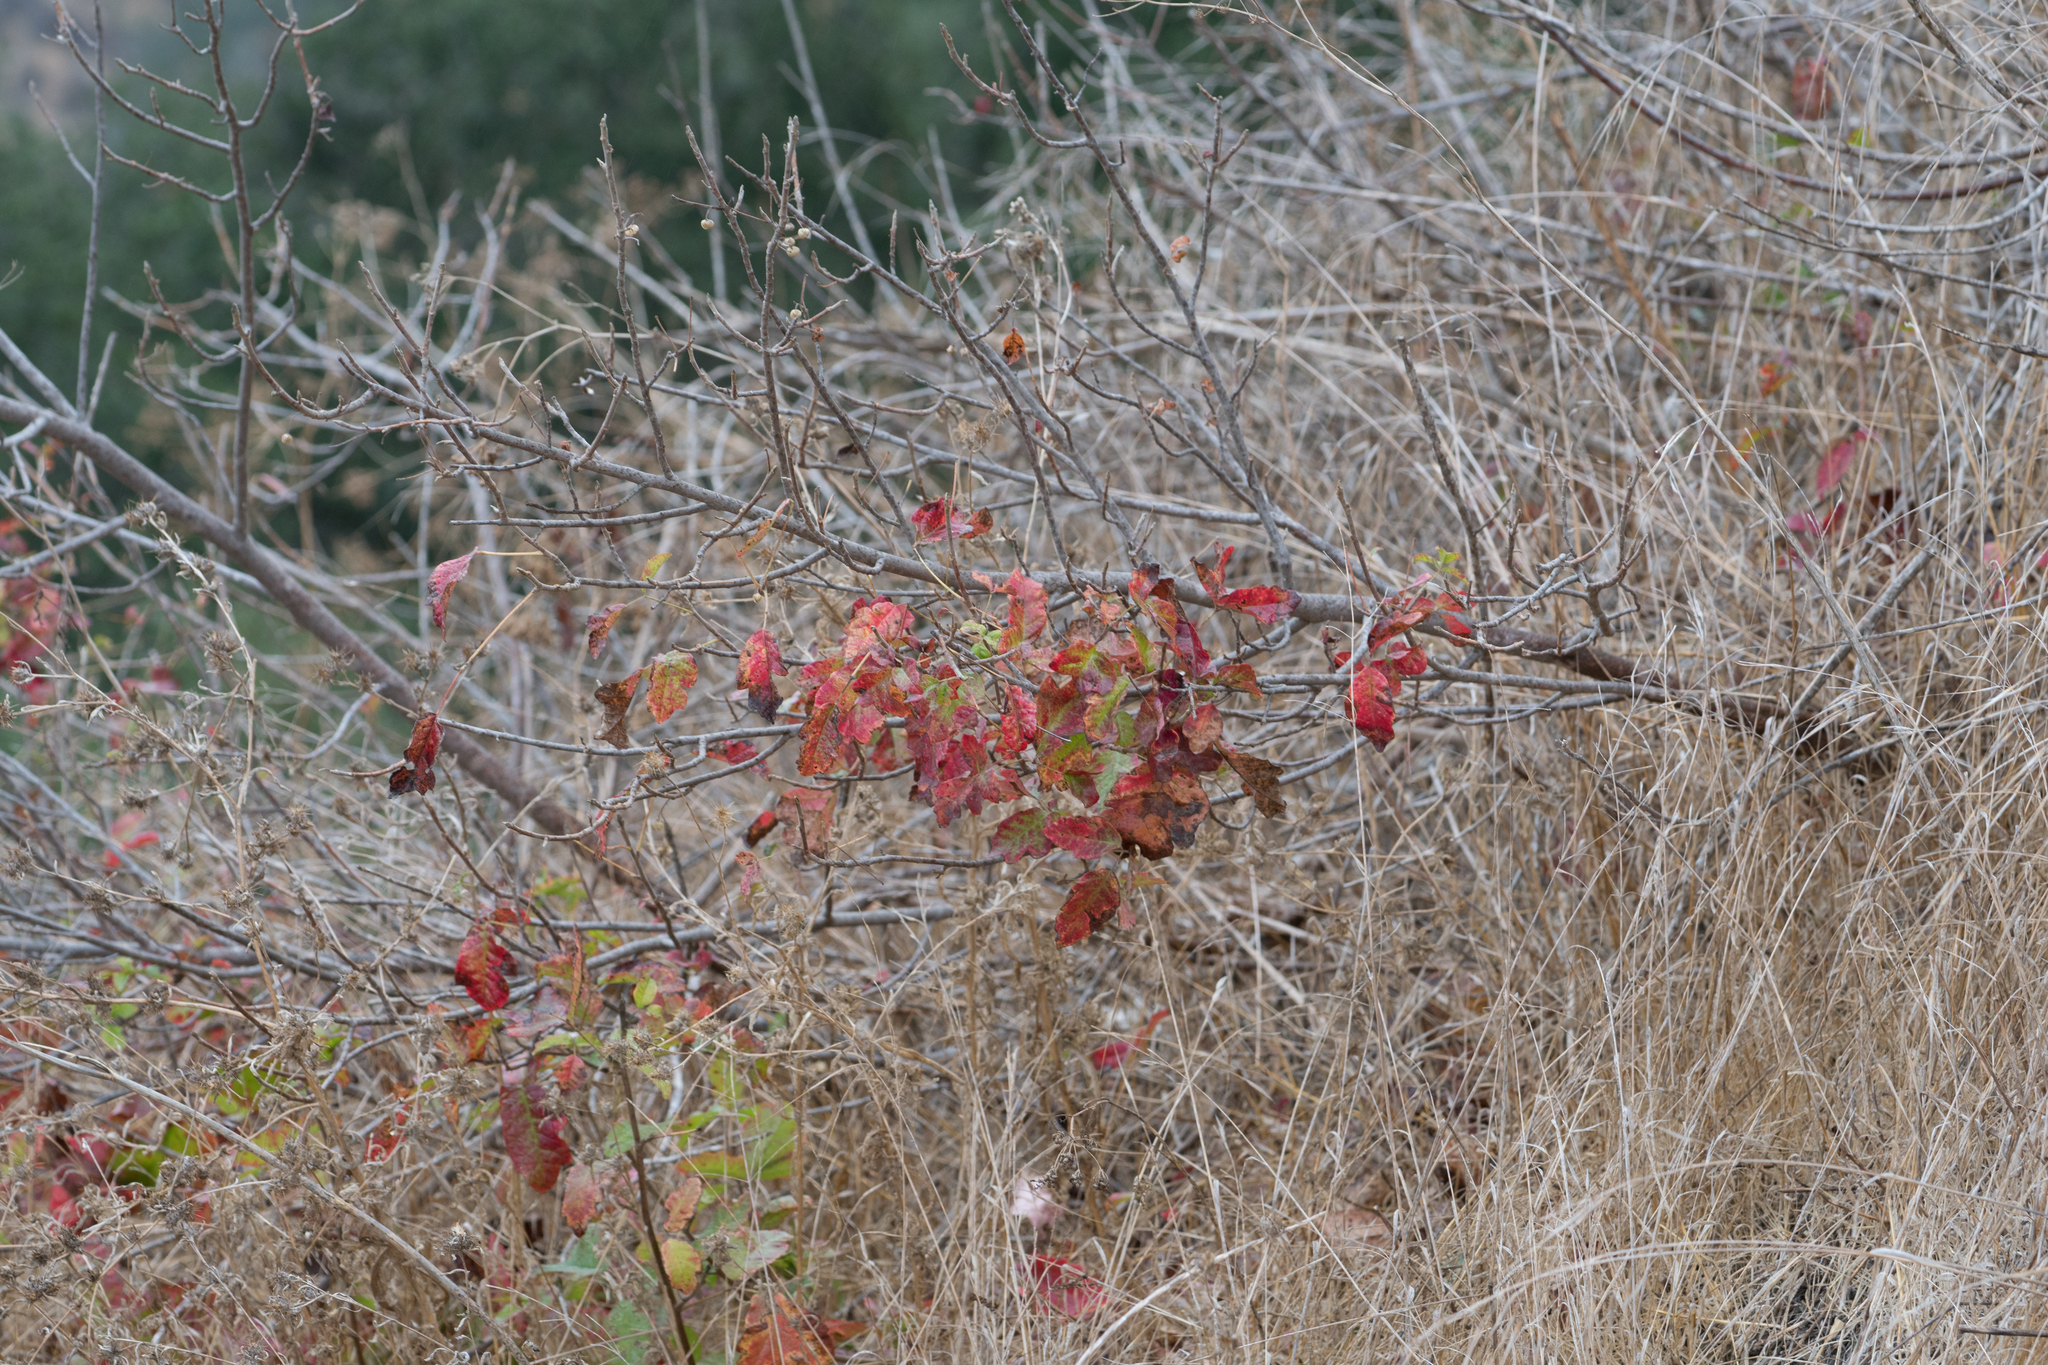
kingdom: Plantae
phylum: Tracheophyta
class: Magnoliopsida
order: Sapindales
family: Anacardiaceae
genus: Toxicodendron
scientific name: Toxicodendron diversilobum
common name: Pacific poison-oak
